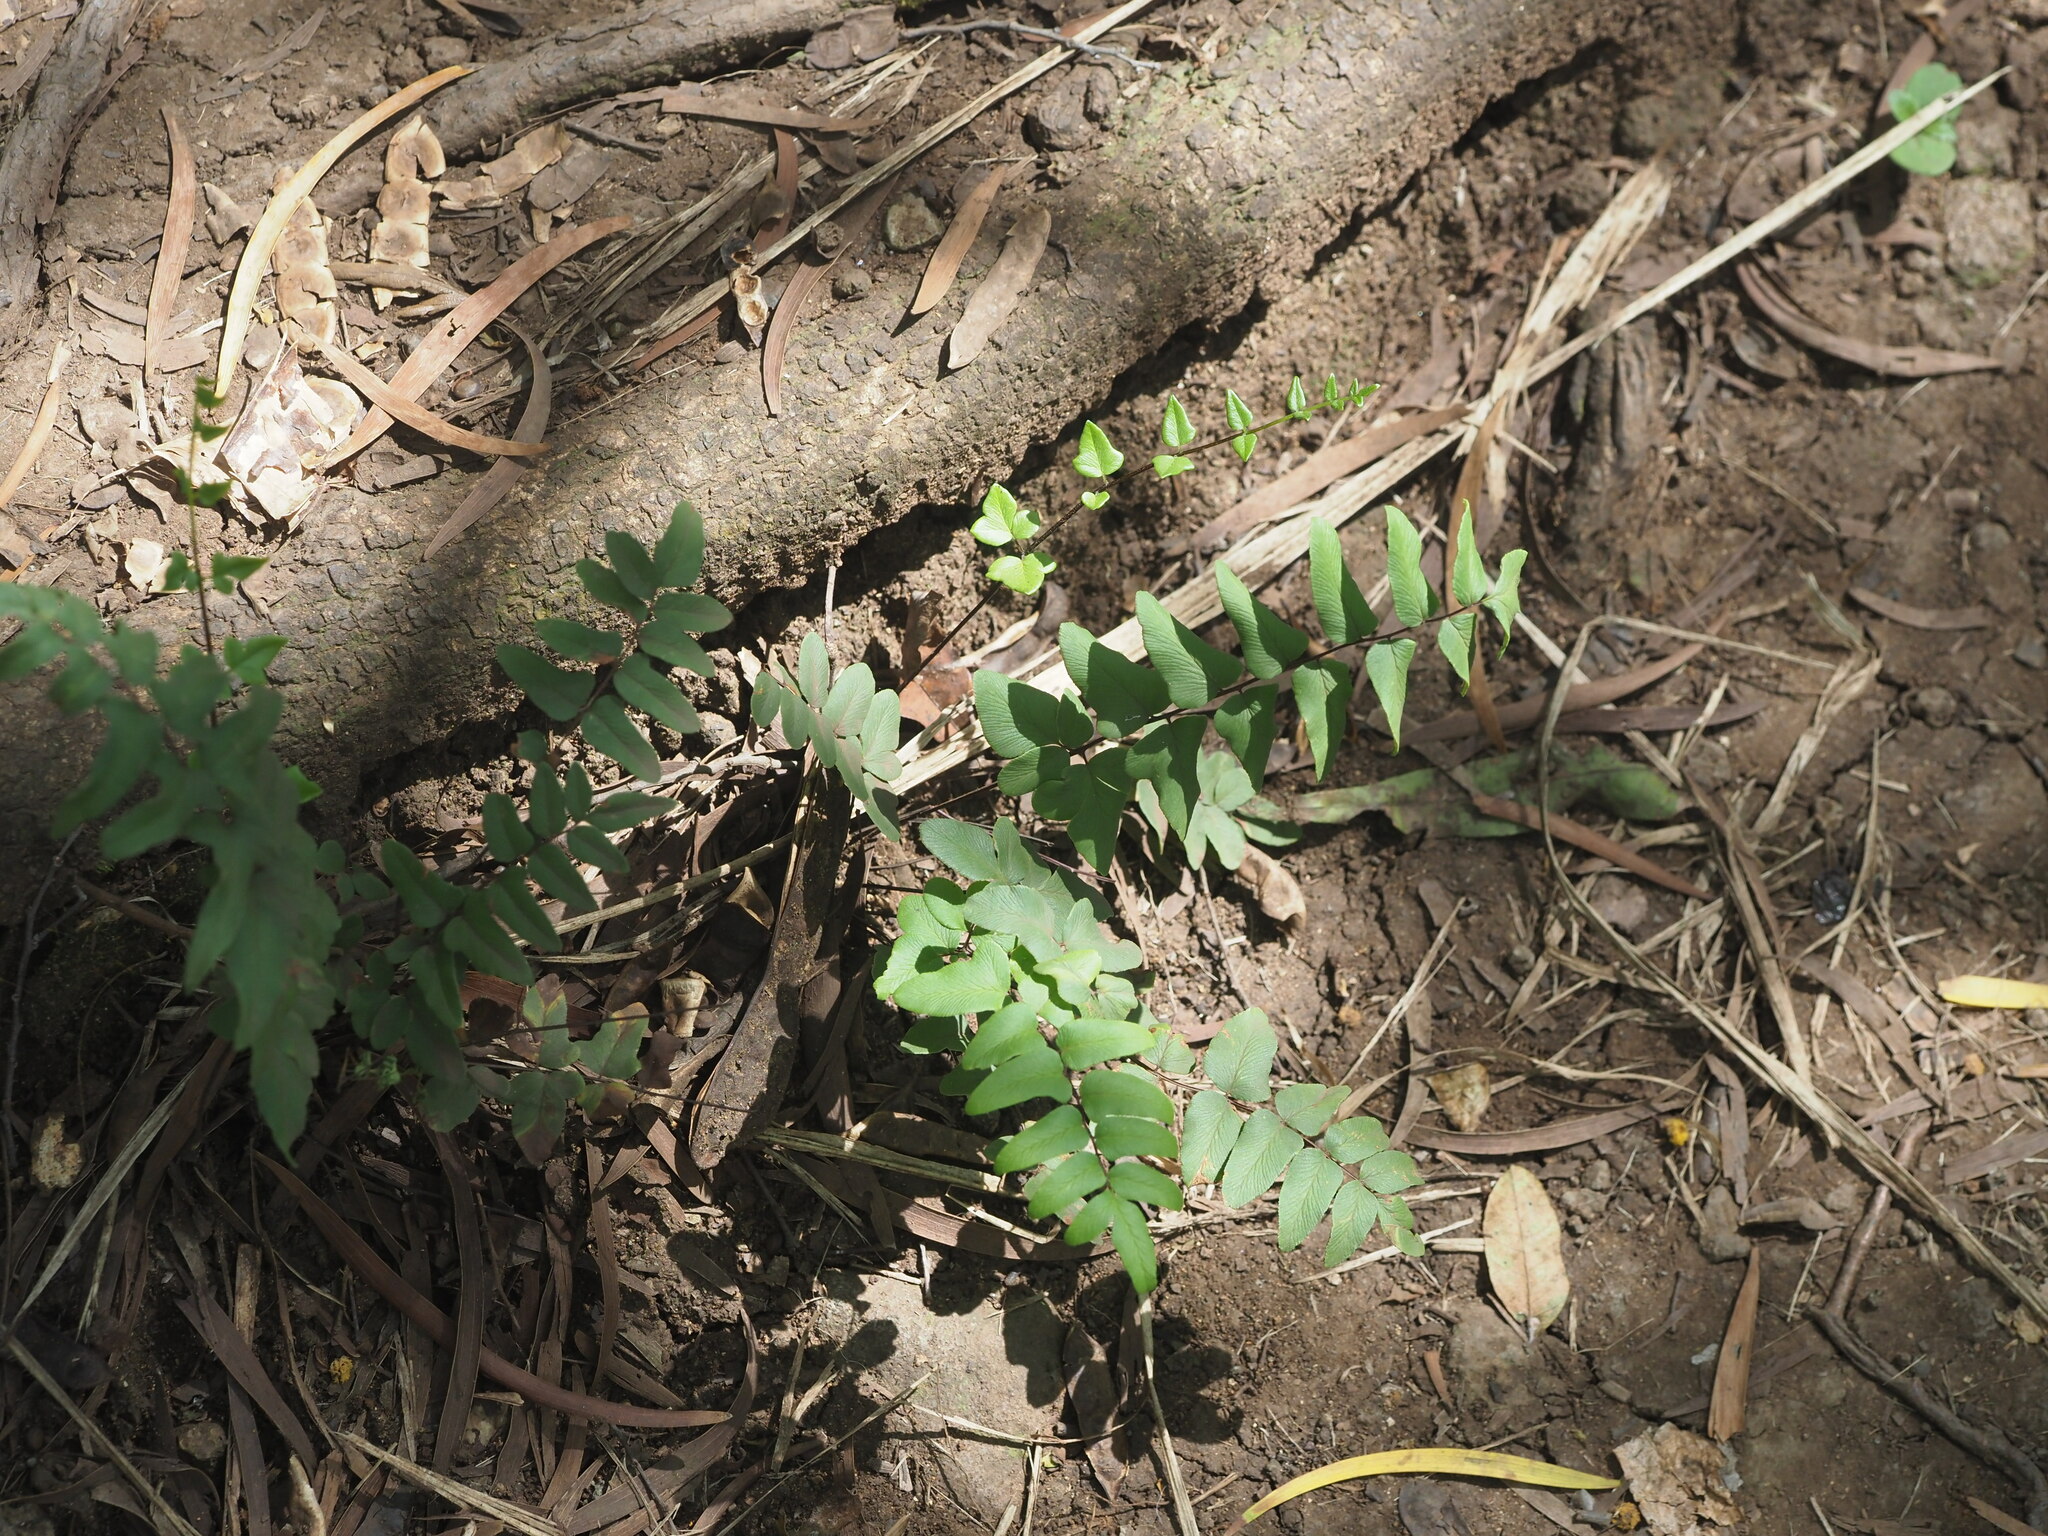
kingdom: Plantae
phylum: Tracheophyta
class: Polypodiopsida
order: Polypodiales
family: Pteridaceae
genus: Cheilanthes
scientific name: Cheilanthes viridis
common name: Green cliffbrake
